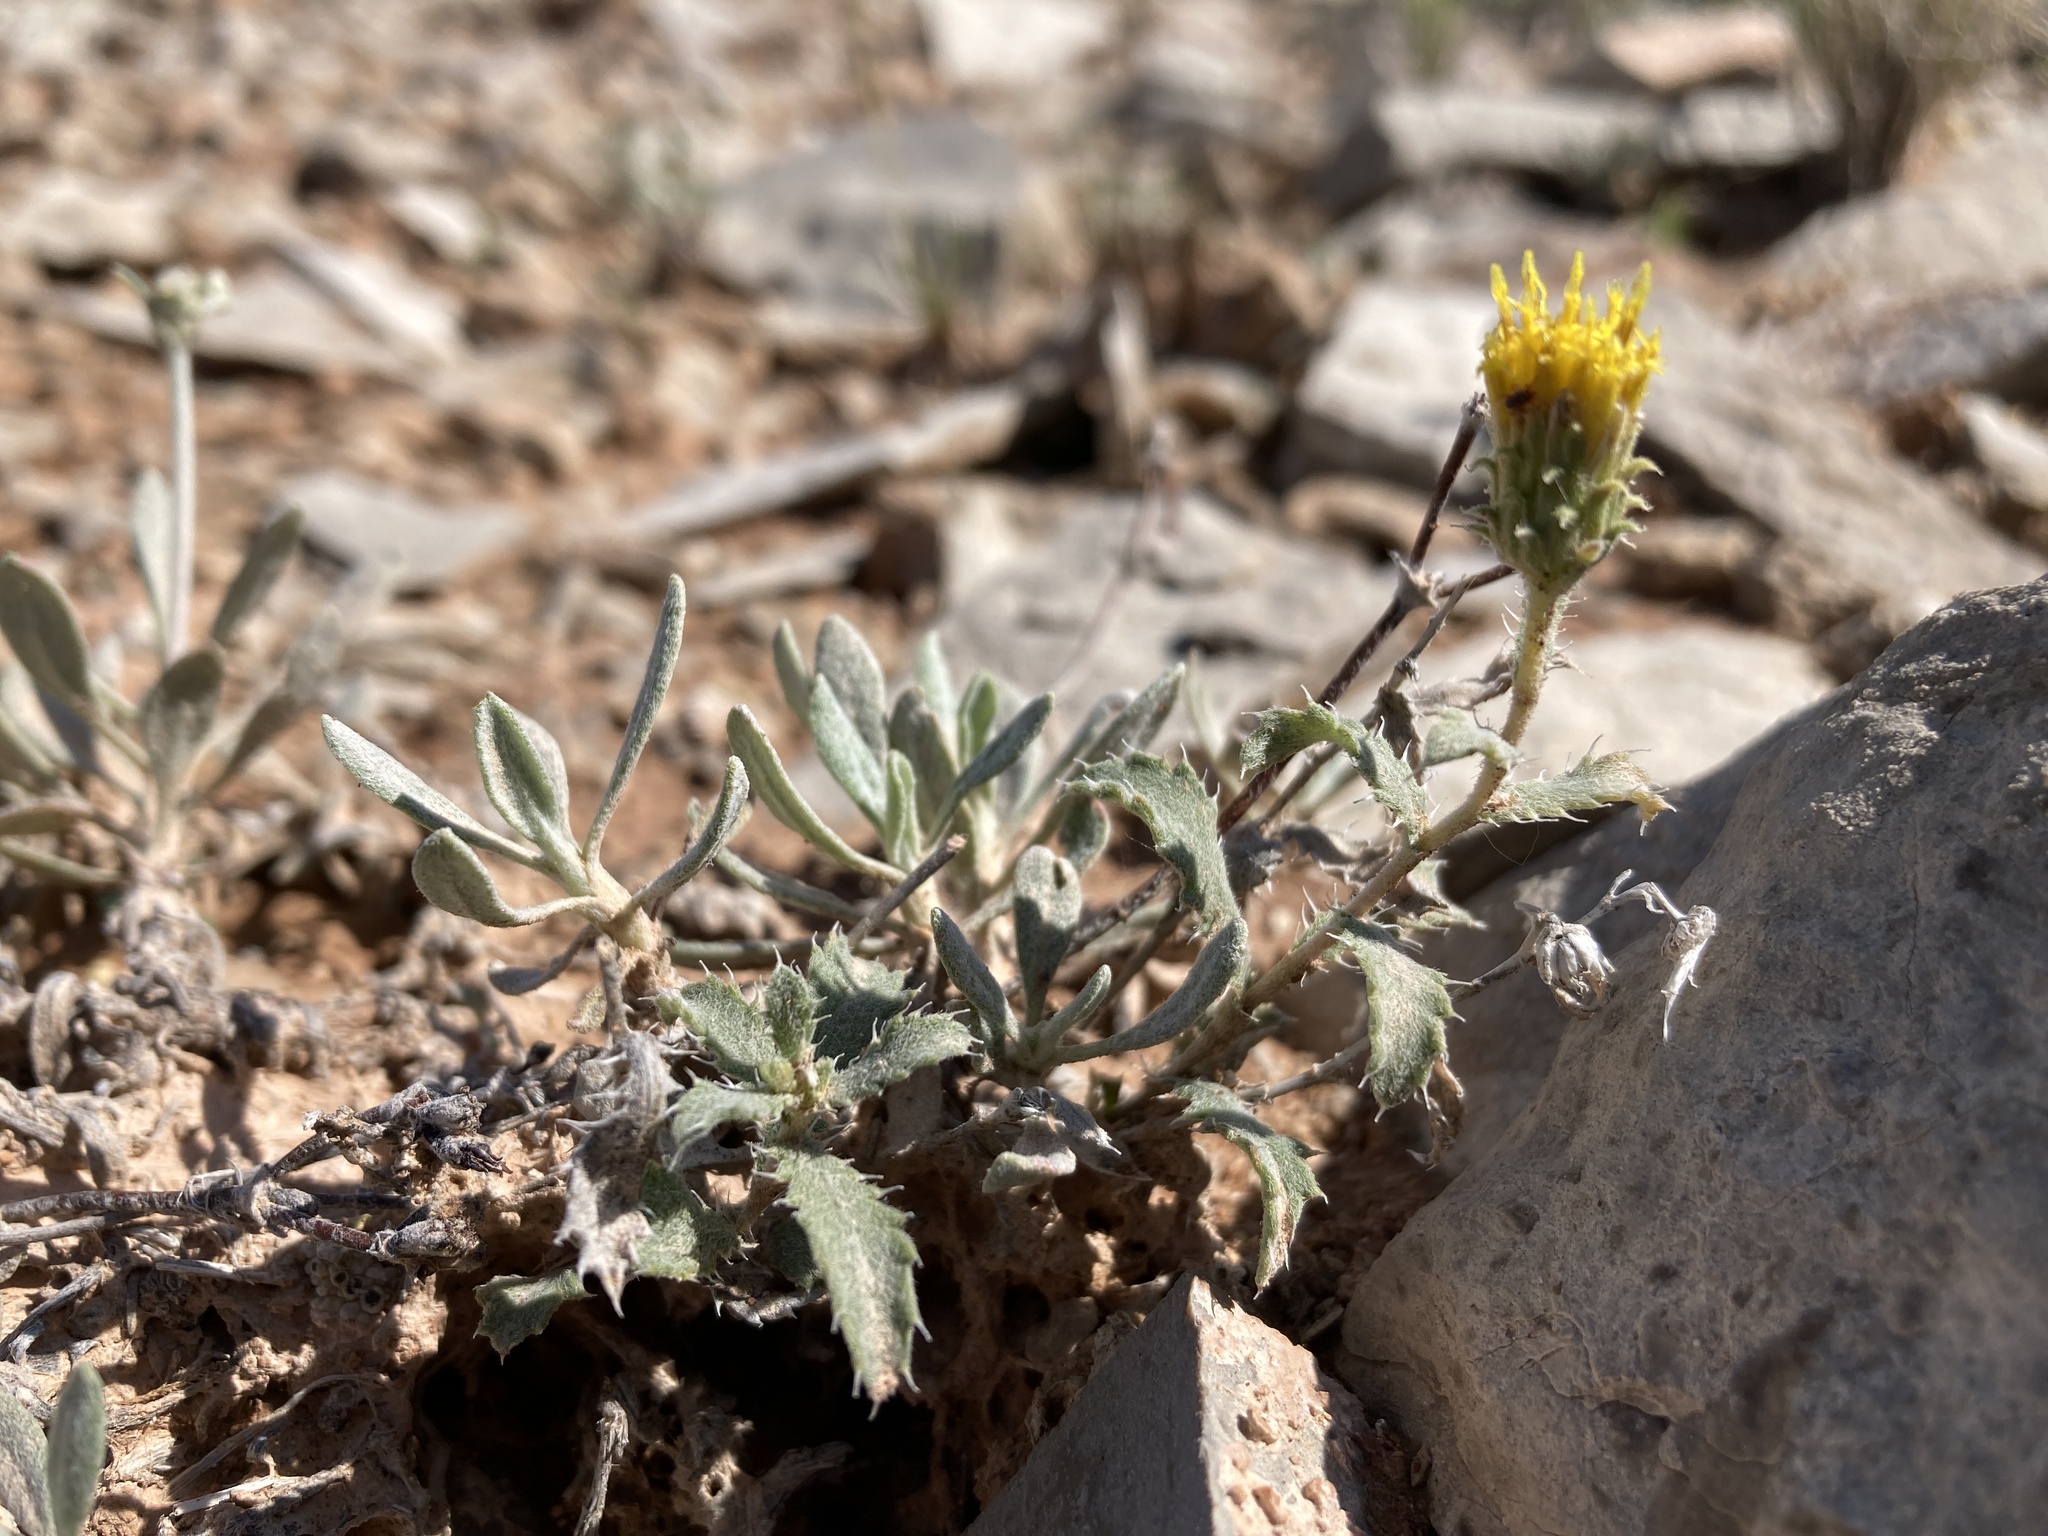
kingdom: Plantae
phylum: Tracheophyta
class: Magnoliopsida
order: Asterales
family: Asteraceae
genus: Xanthisma
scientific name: Xanthisma grindelioides
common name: Goldenweed
